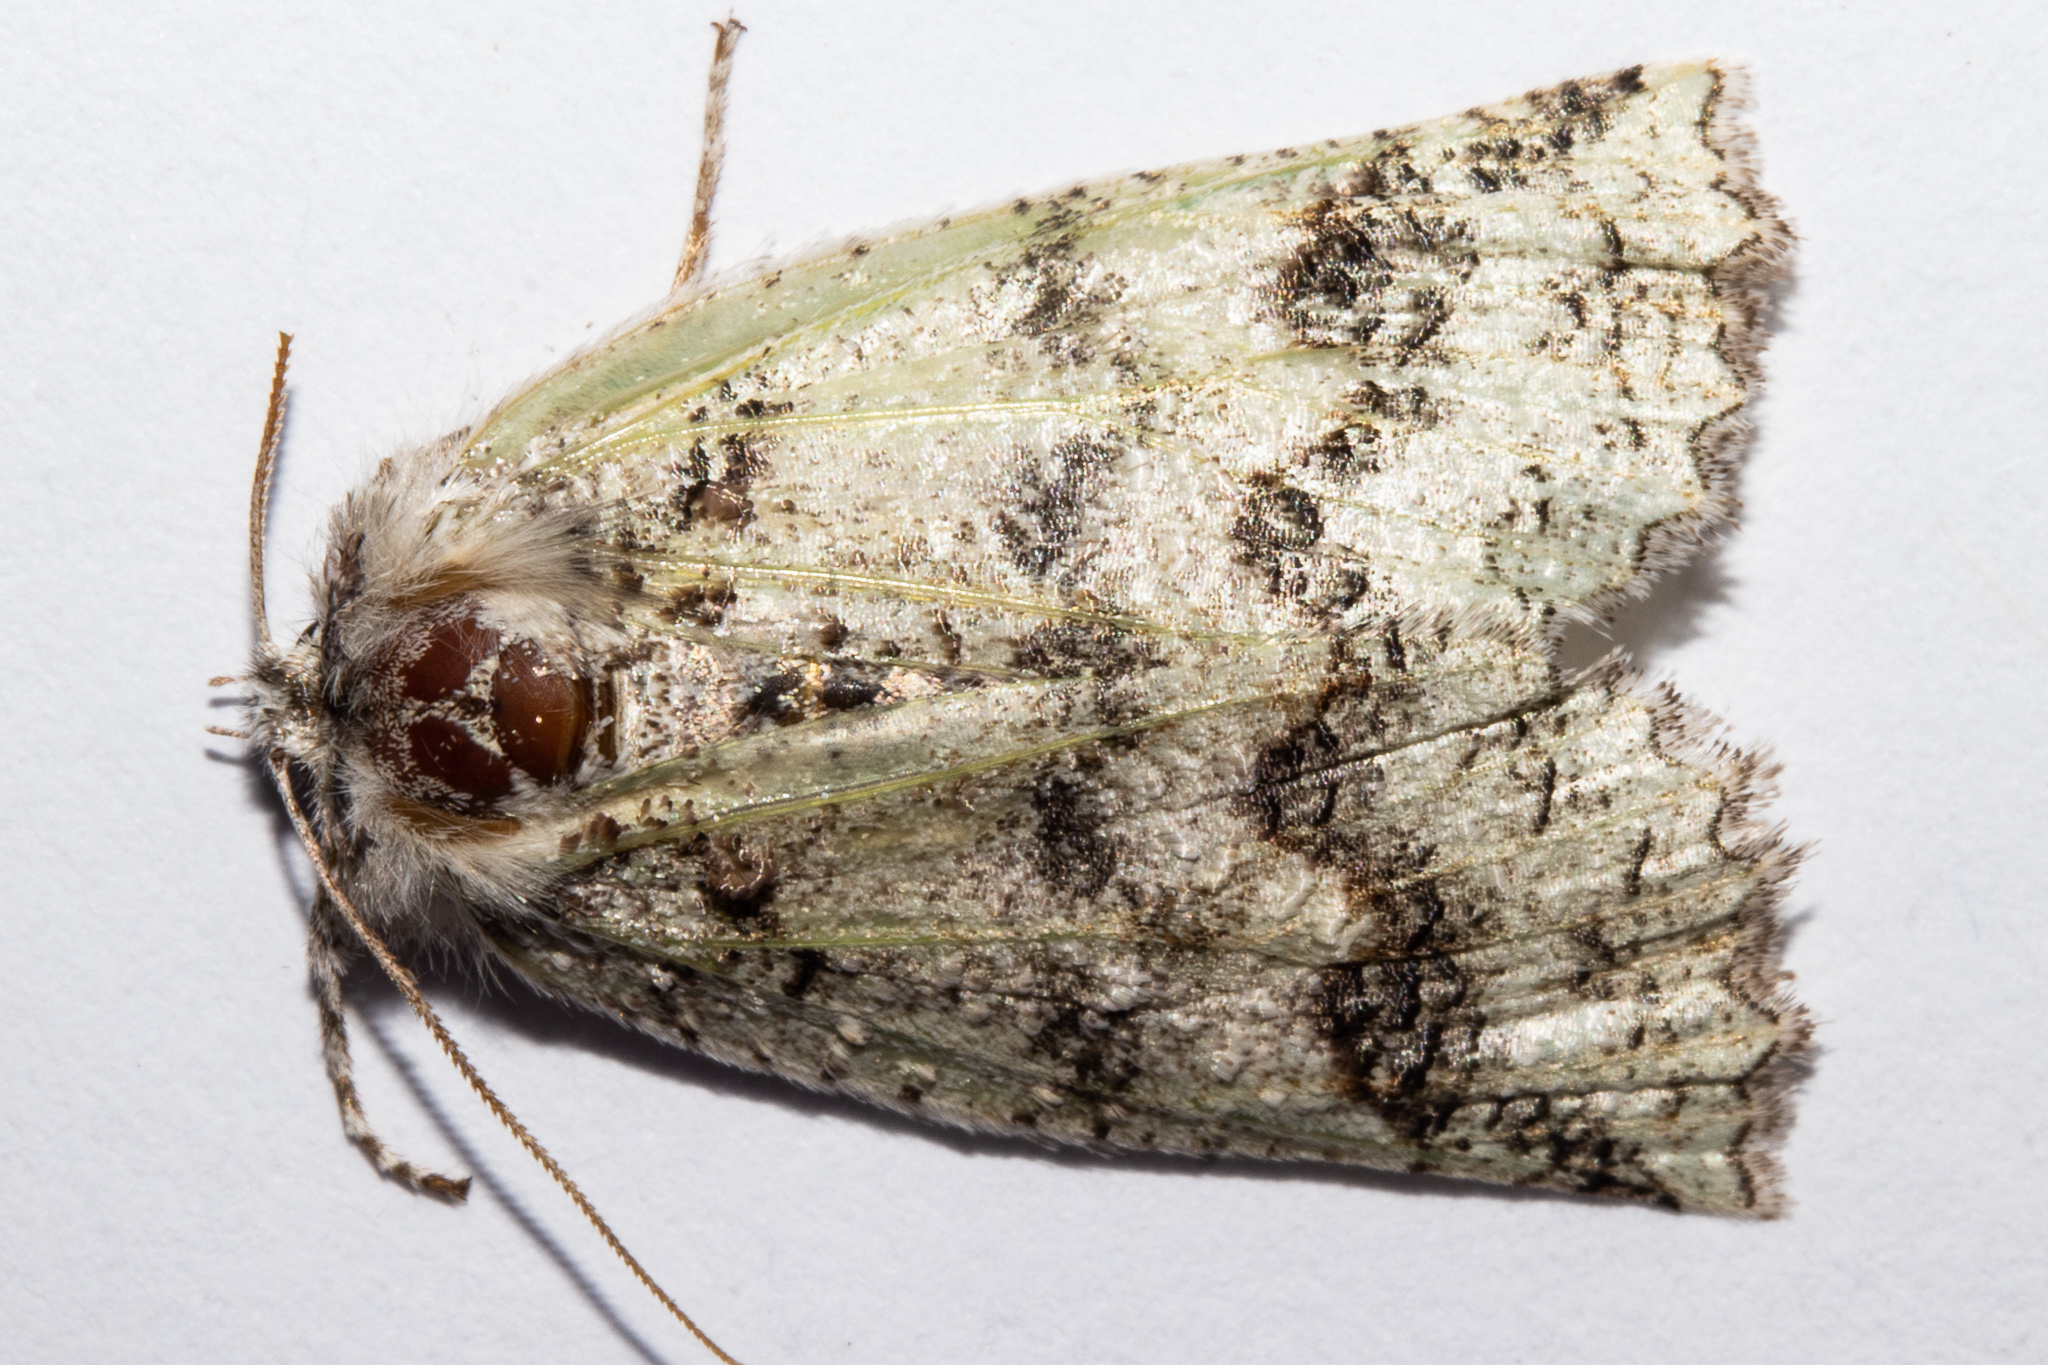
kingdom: Animalia
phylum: Arthropoda
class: Insecta
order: Lepidoptera
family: Geometridae
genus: Declana
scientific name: Declana floccosa
